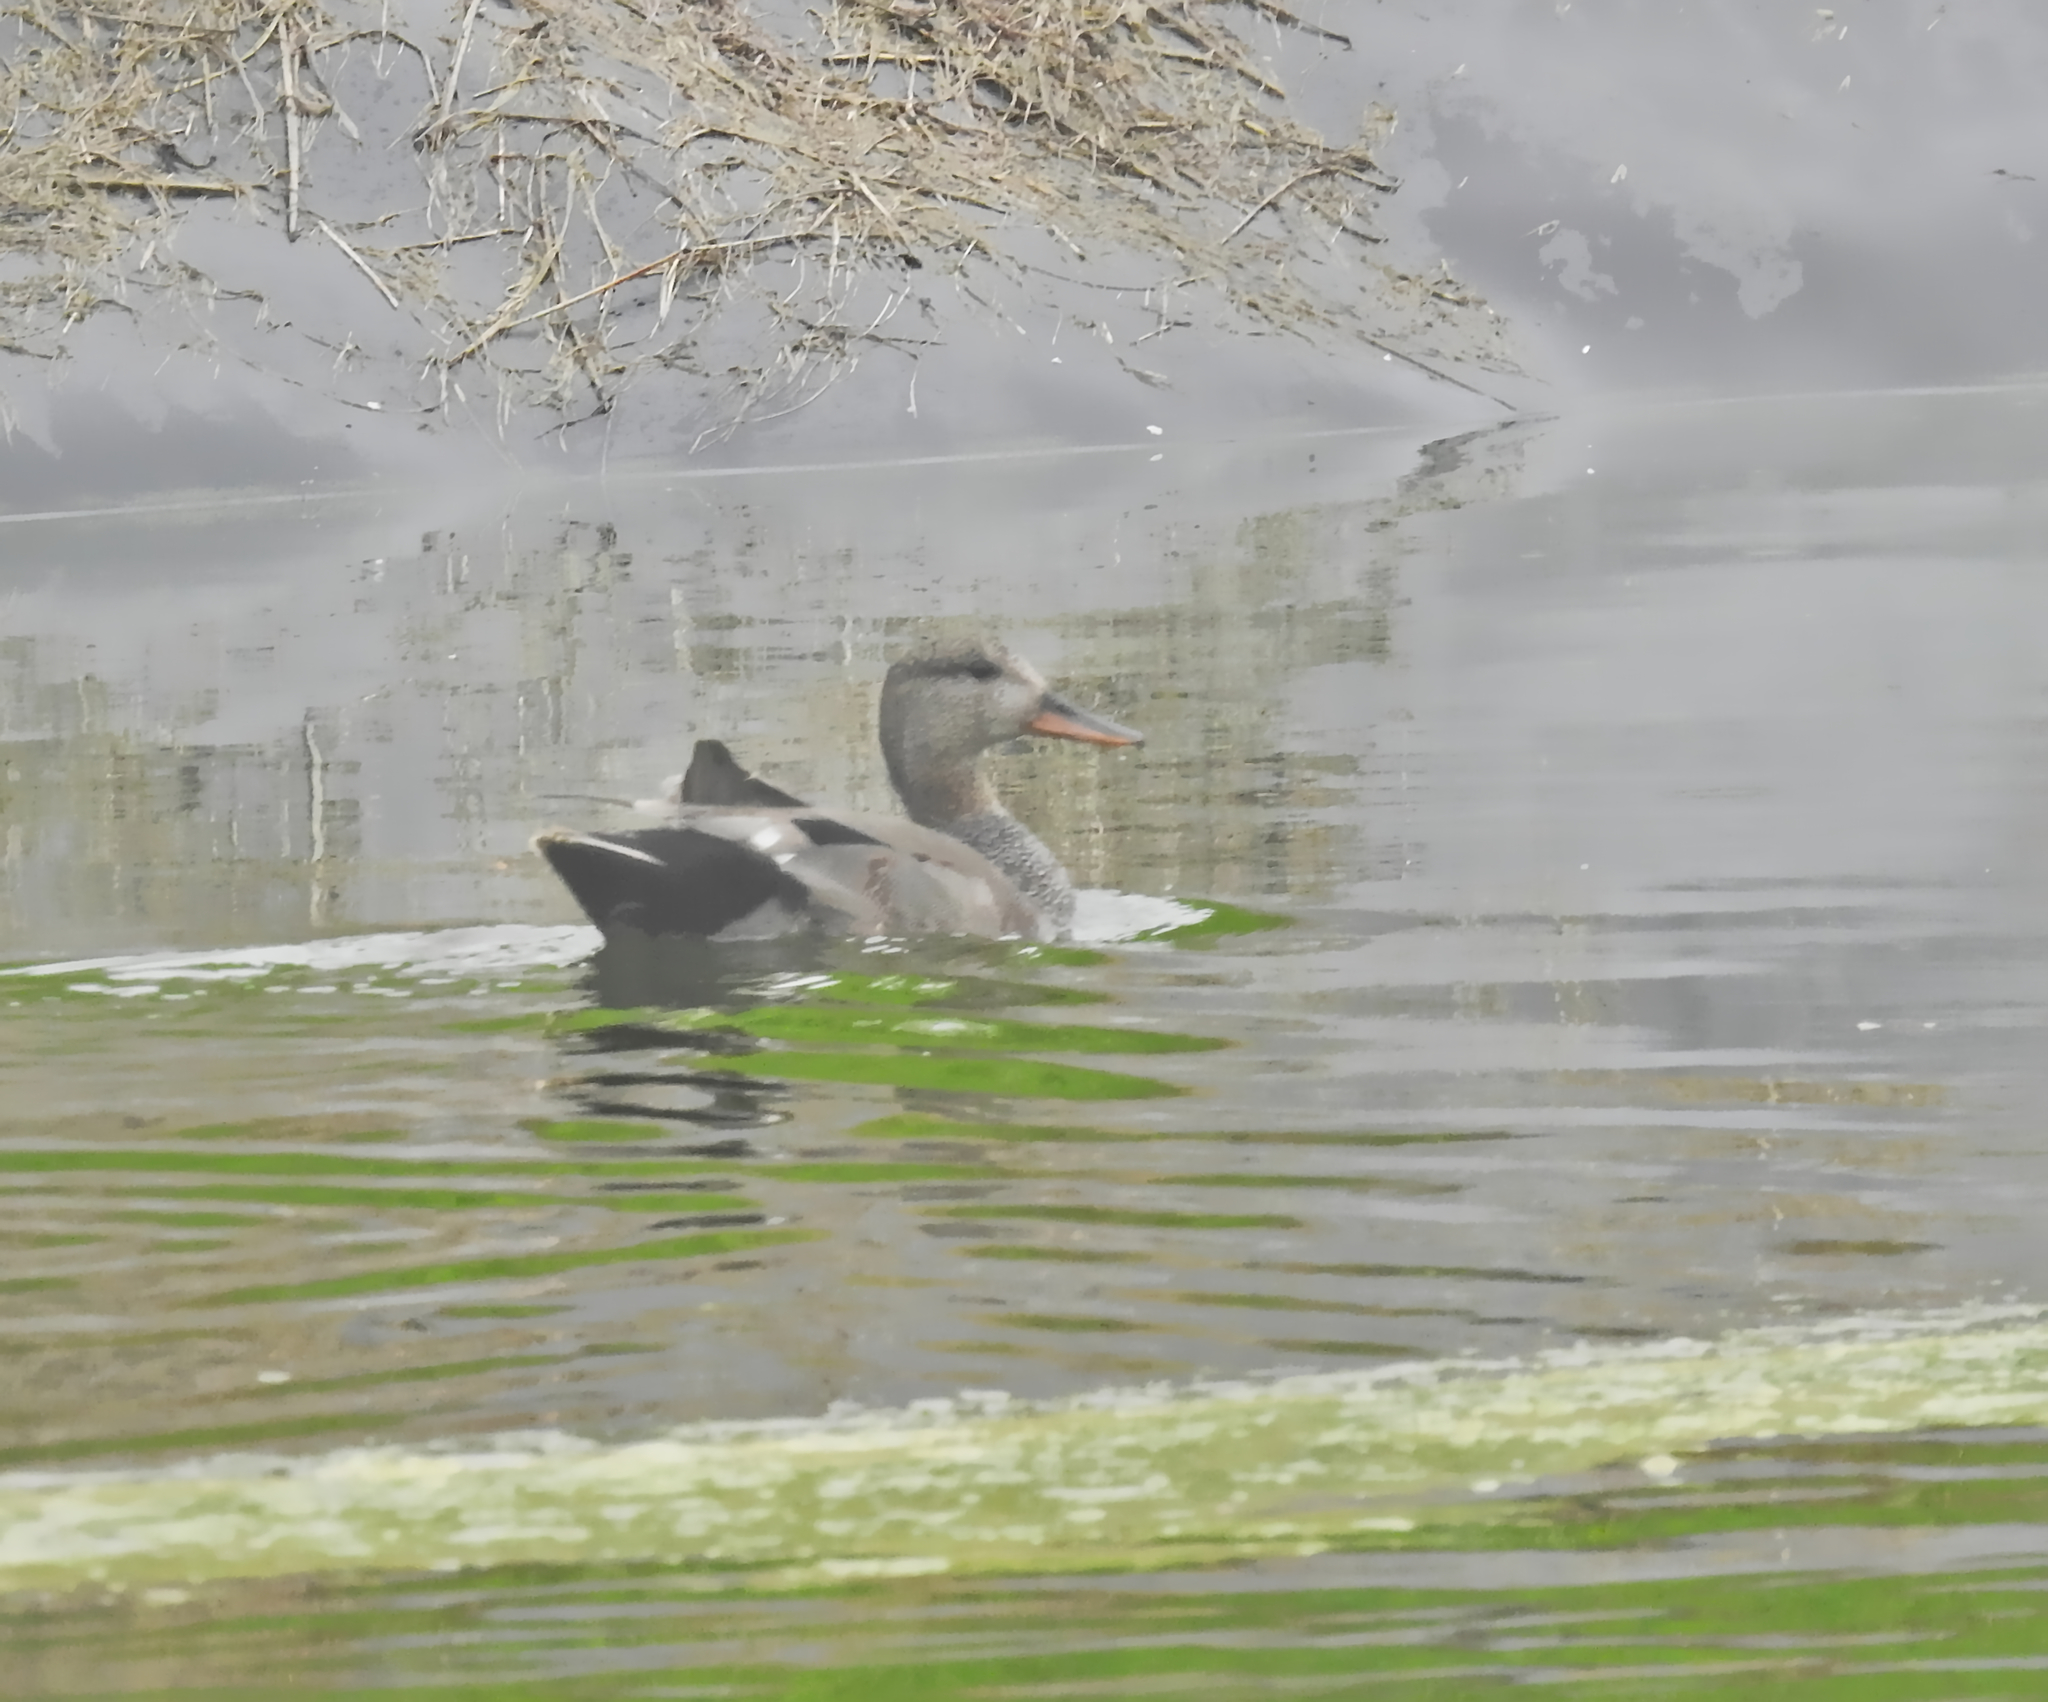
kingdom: Animalia
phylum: Chordata
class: Aves
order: Anseriformes
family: Anatidae
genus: Mareca
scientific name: Mareca strepera
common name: Gadwall
